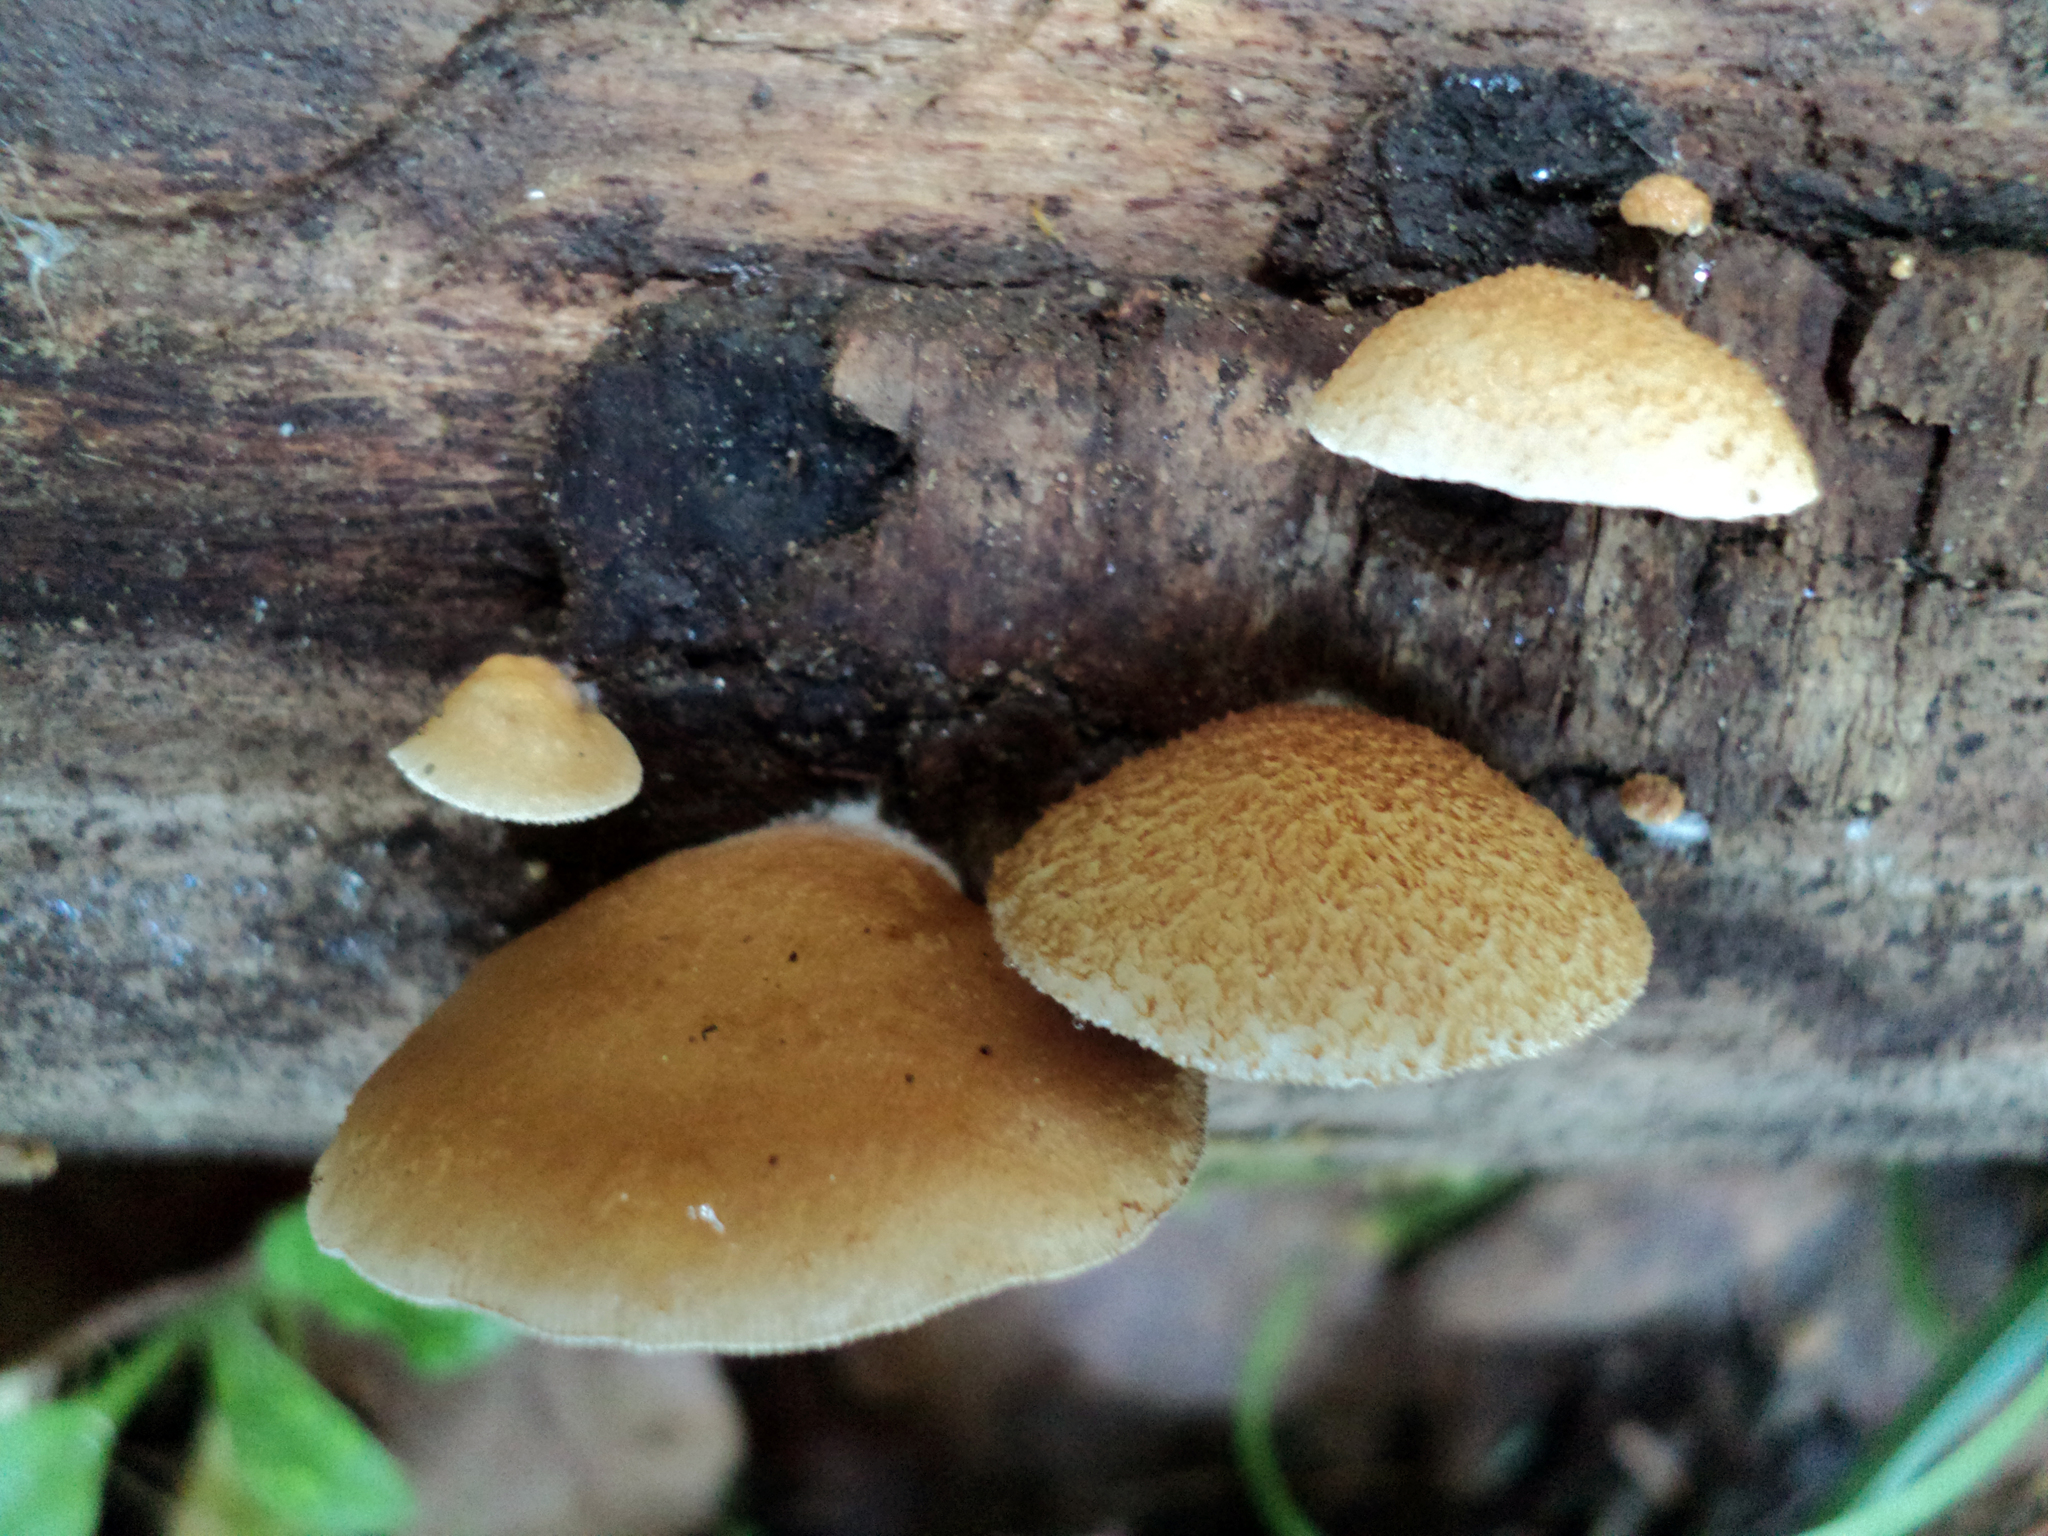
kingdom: Fungi
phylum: Basidiomycota
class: Agaricomycetes
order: Agaricales
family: Crepidotaceae
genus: Crepidotus
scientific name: Crepidotus mollis
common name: Peeling oysterling
